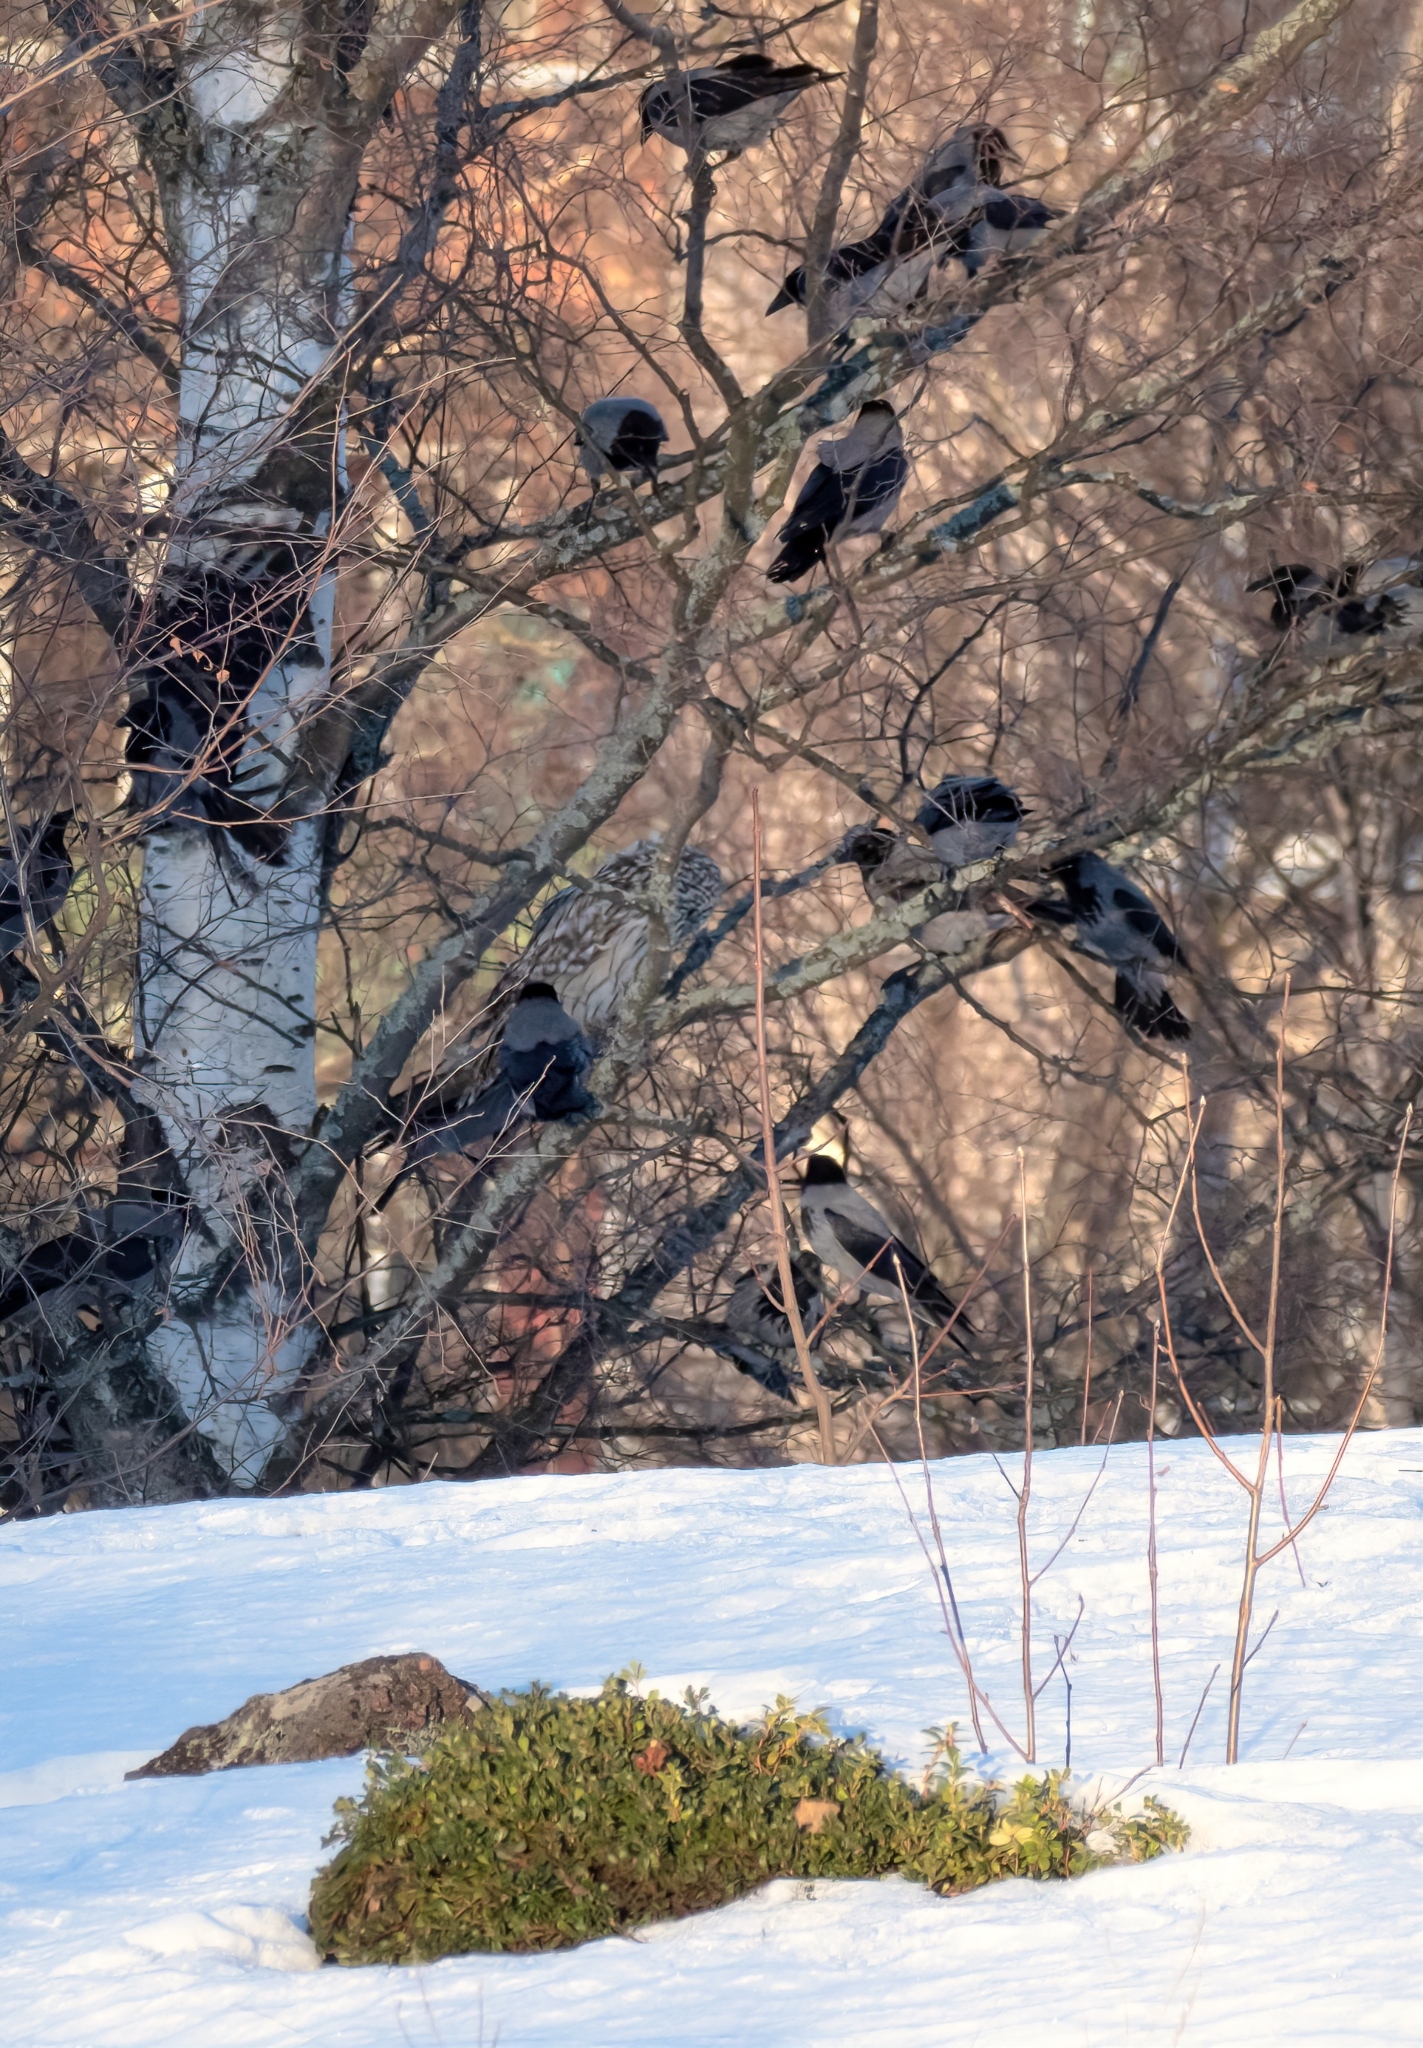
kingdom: Animalia
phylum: Chordata
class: Aves
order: Strigiformes
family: Strigidae
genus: Strix
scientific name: Strix uralensis
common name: Ural owl
